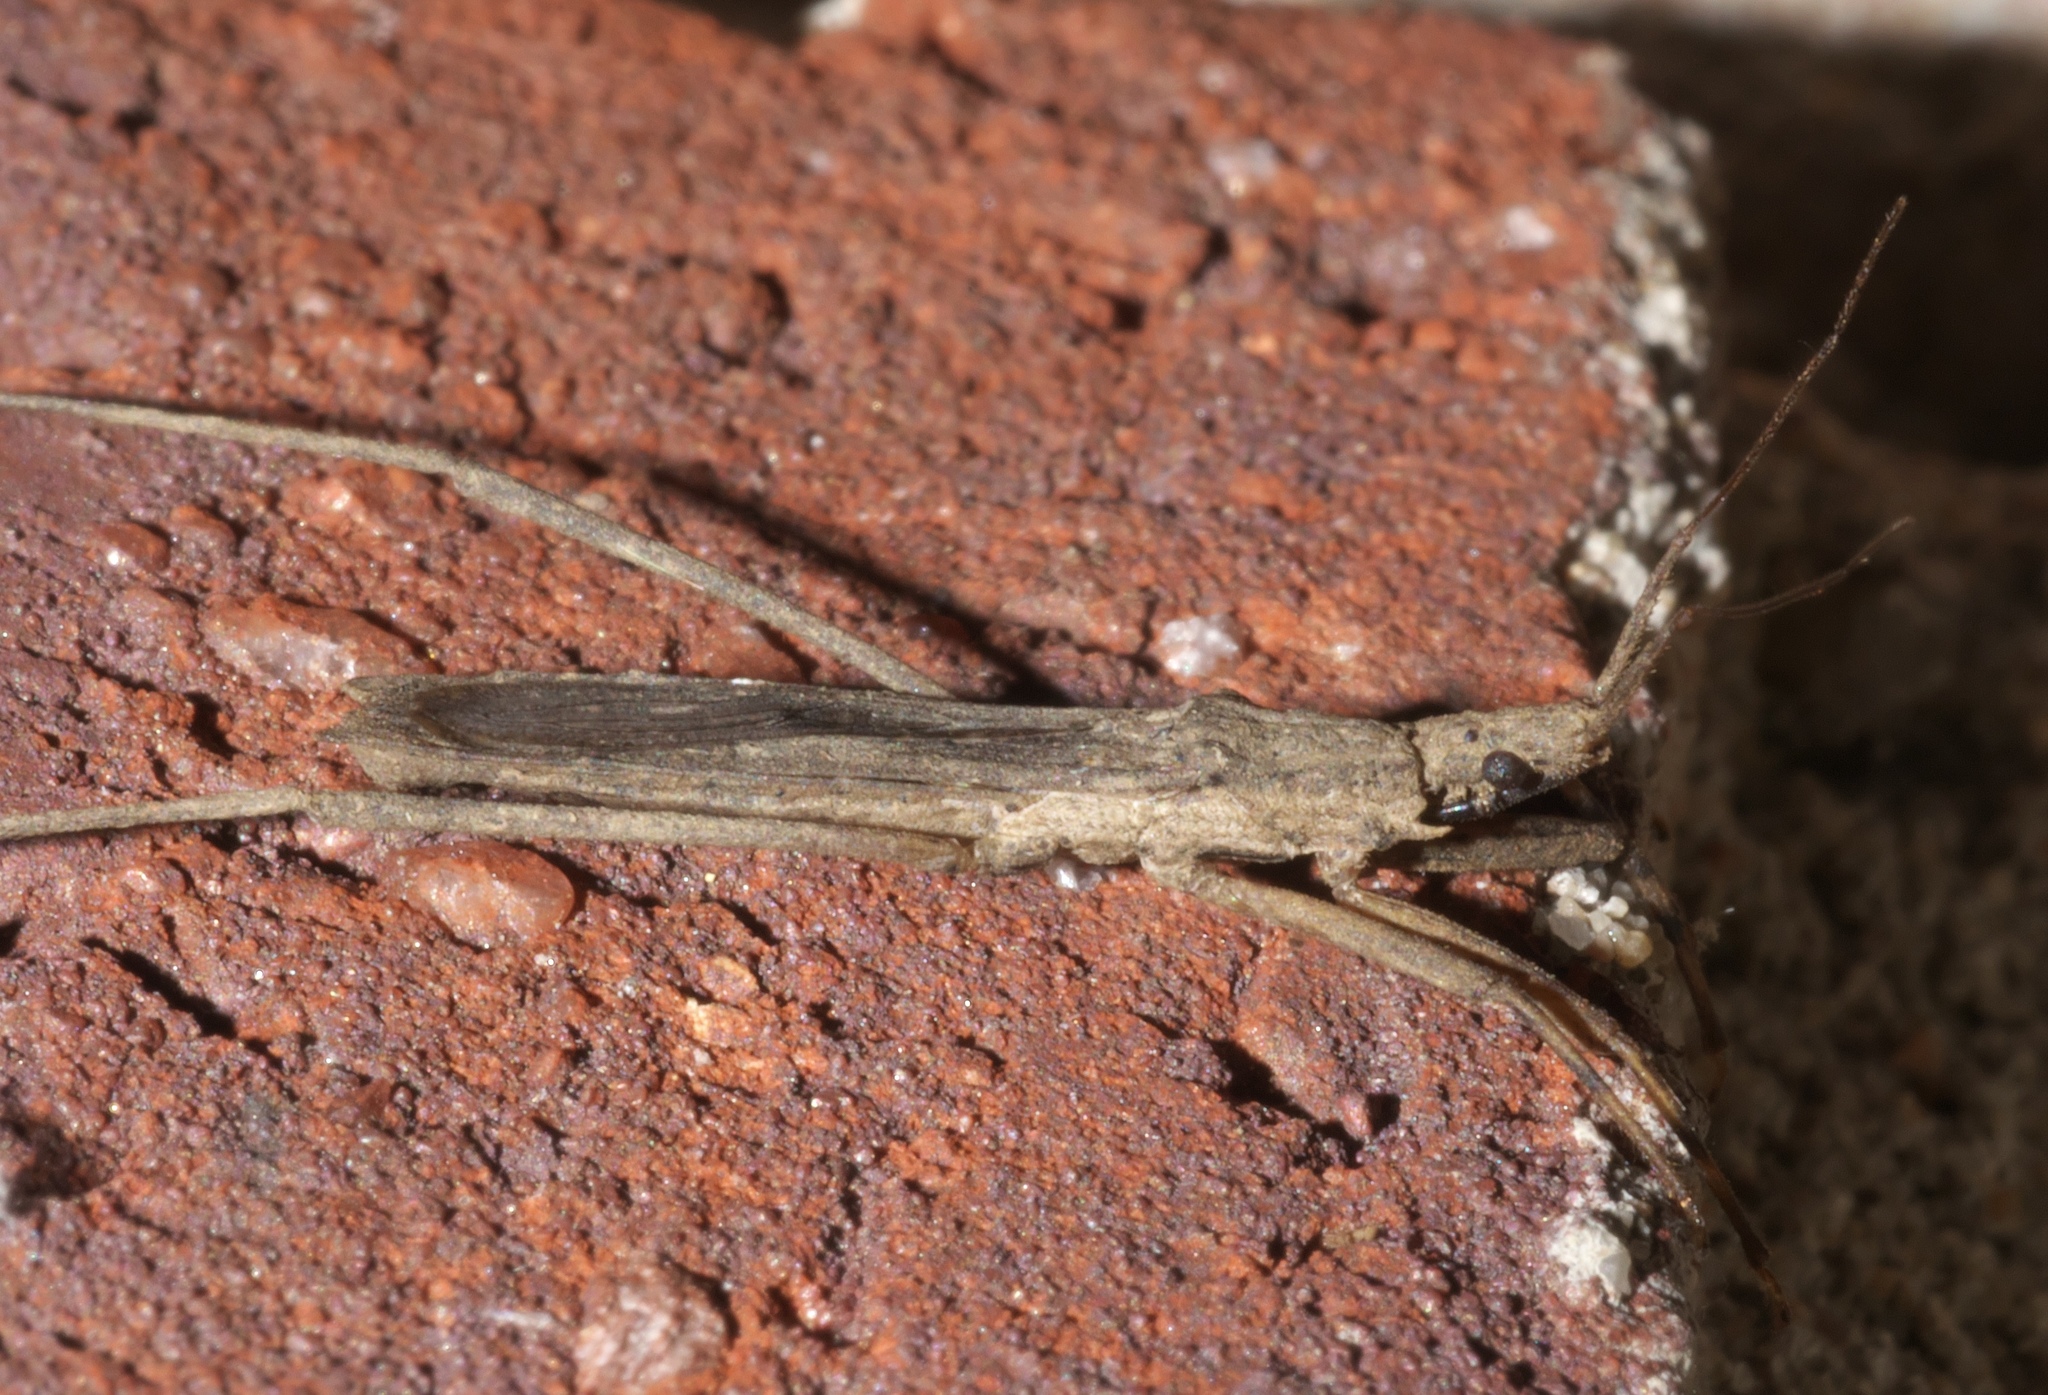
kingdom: Animalia
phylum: Arthropoda
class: Insecta
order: Hemiptera
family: Reduviidae
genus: Pygolampis
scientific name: Pygolampis pectoralis
